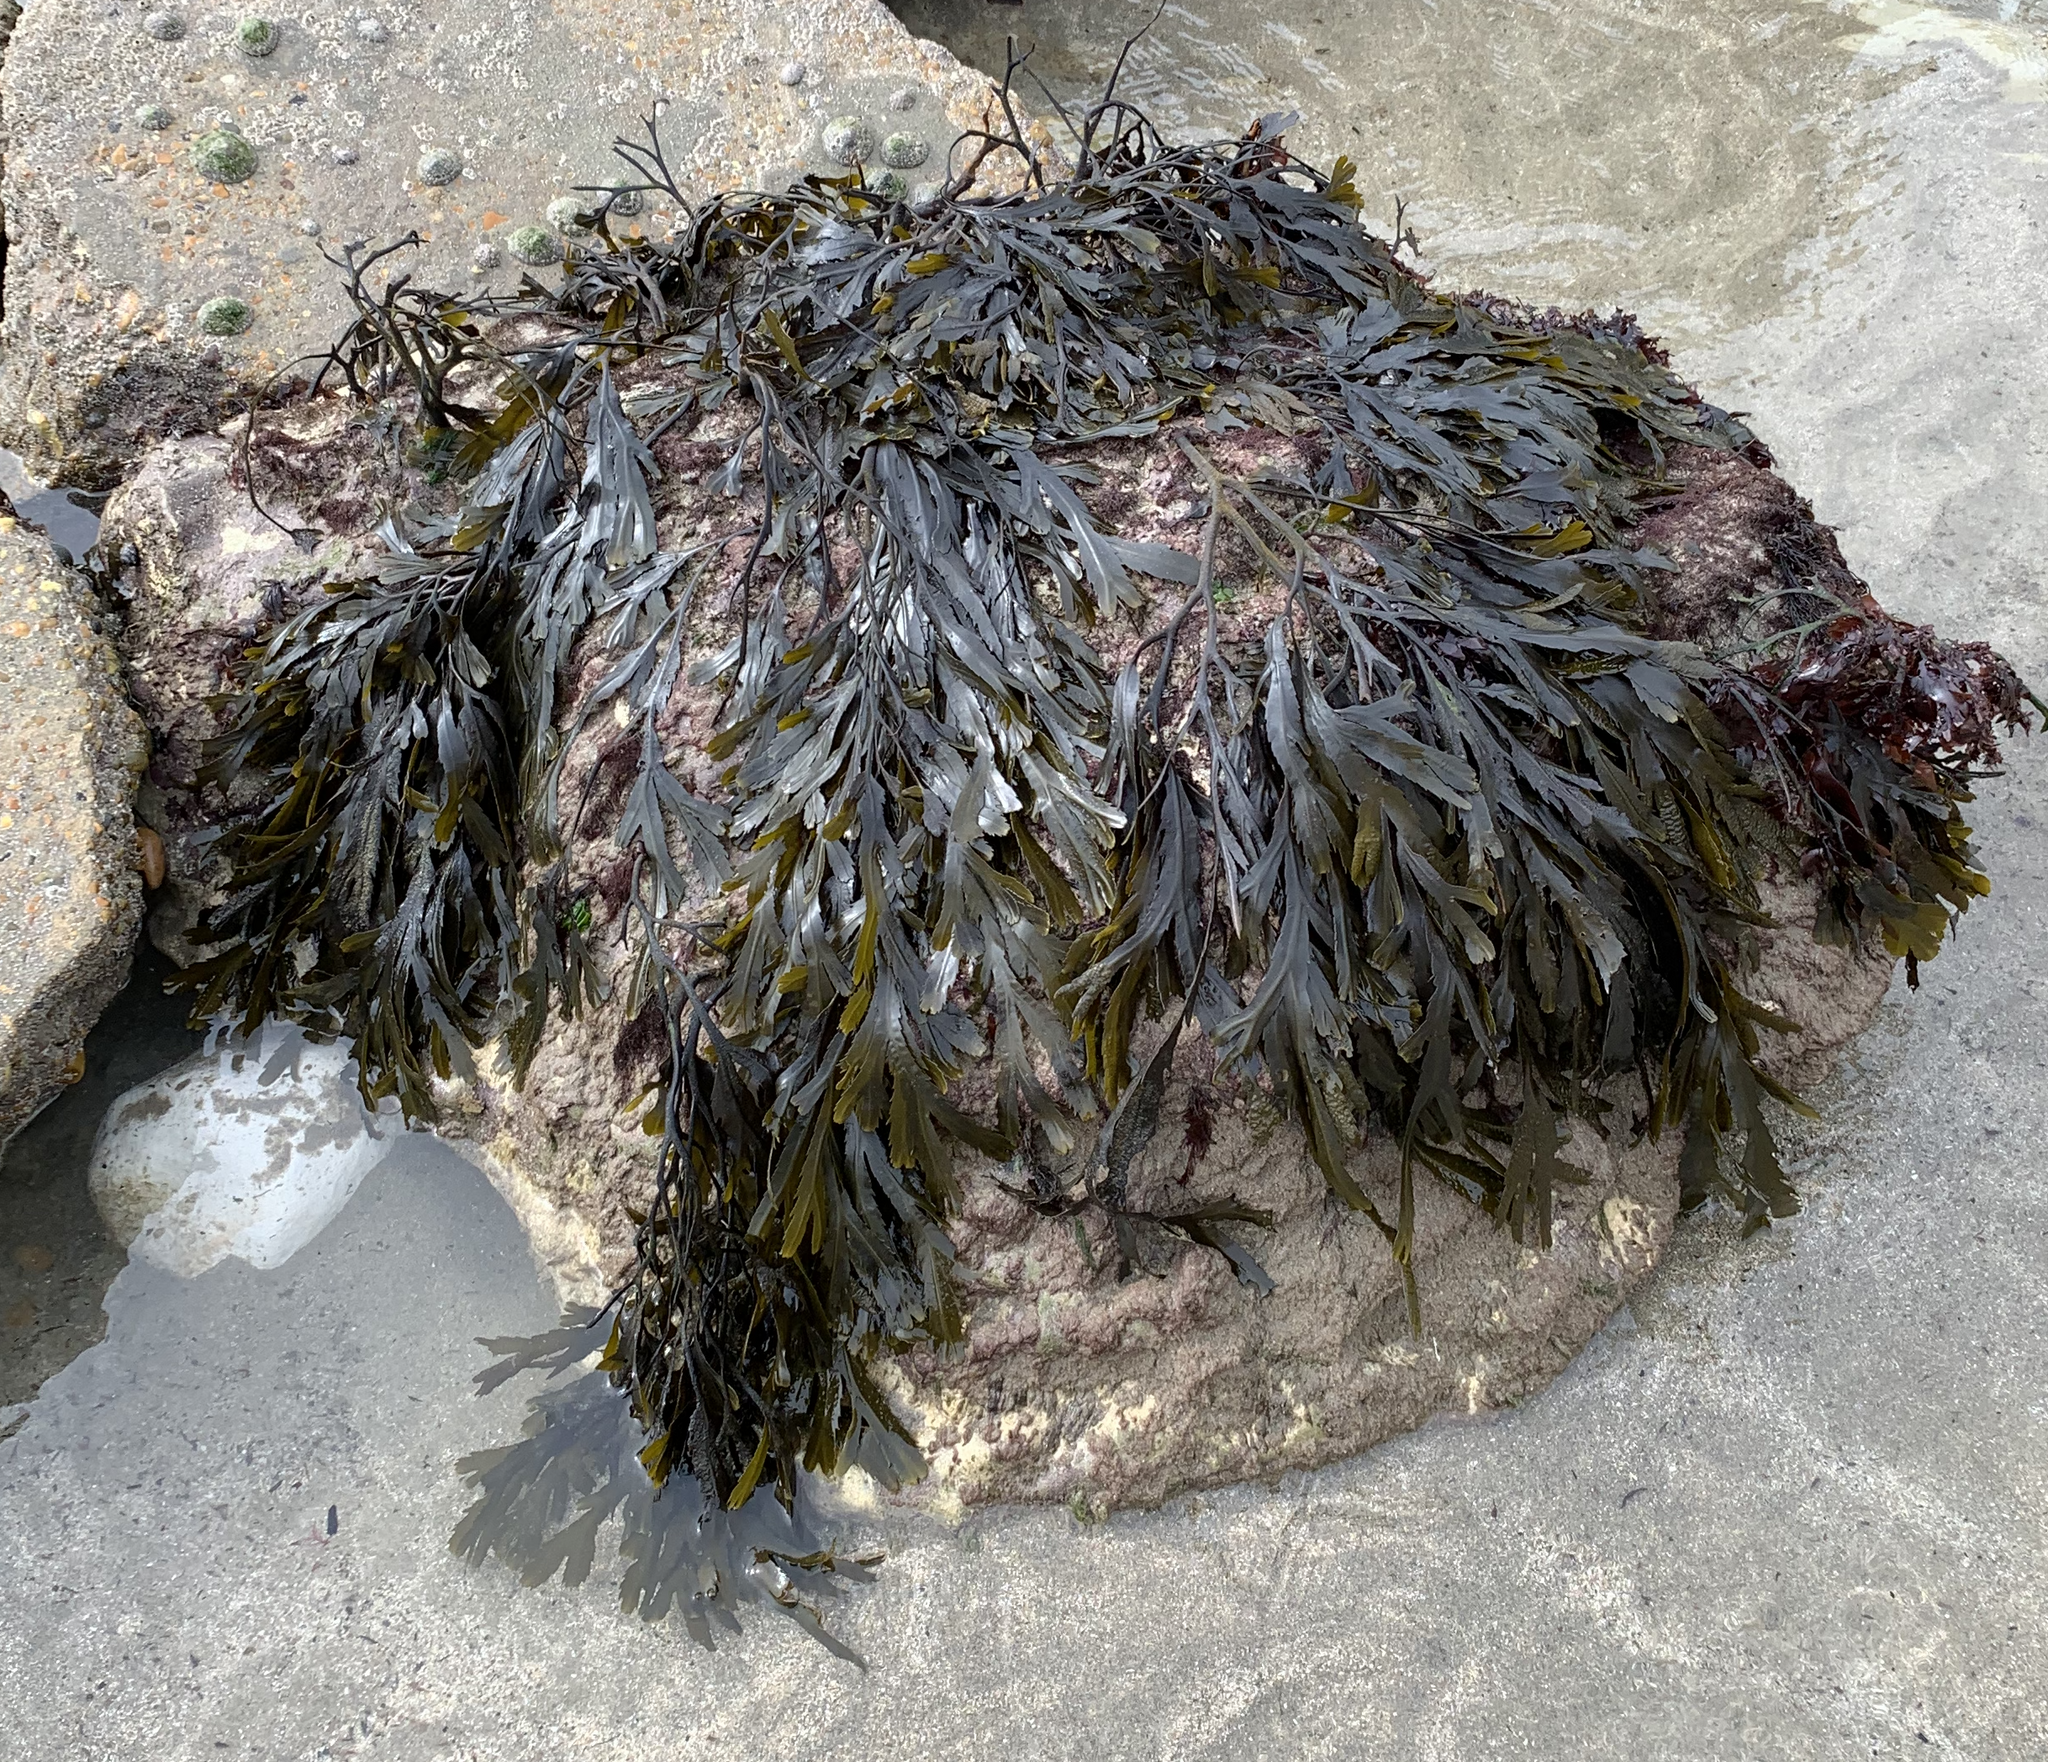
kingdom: Chromista
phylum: Ochrophyta
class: Phaeophyceae
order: Fucales
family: Fucaceae
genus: Fucus
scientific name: Fucus serratus
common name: Toothed wrack
